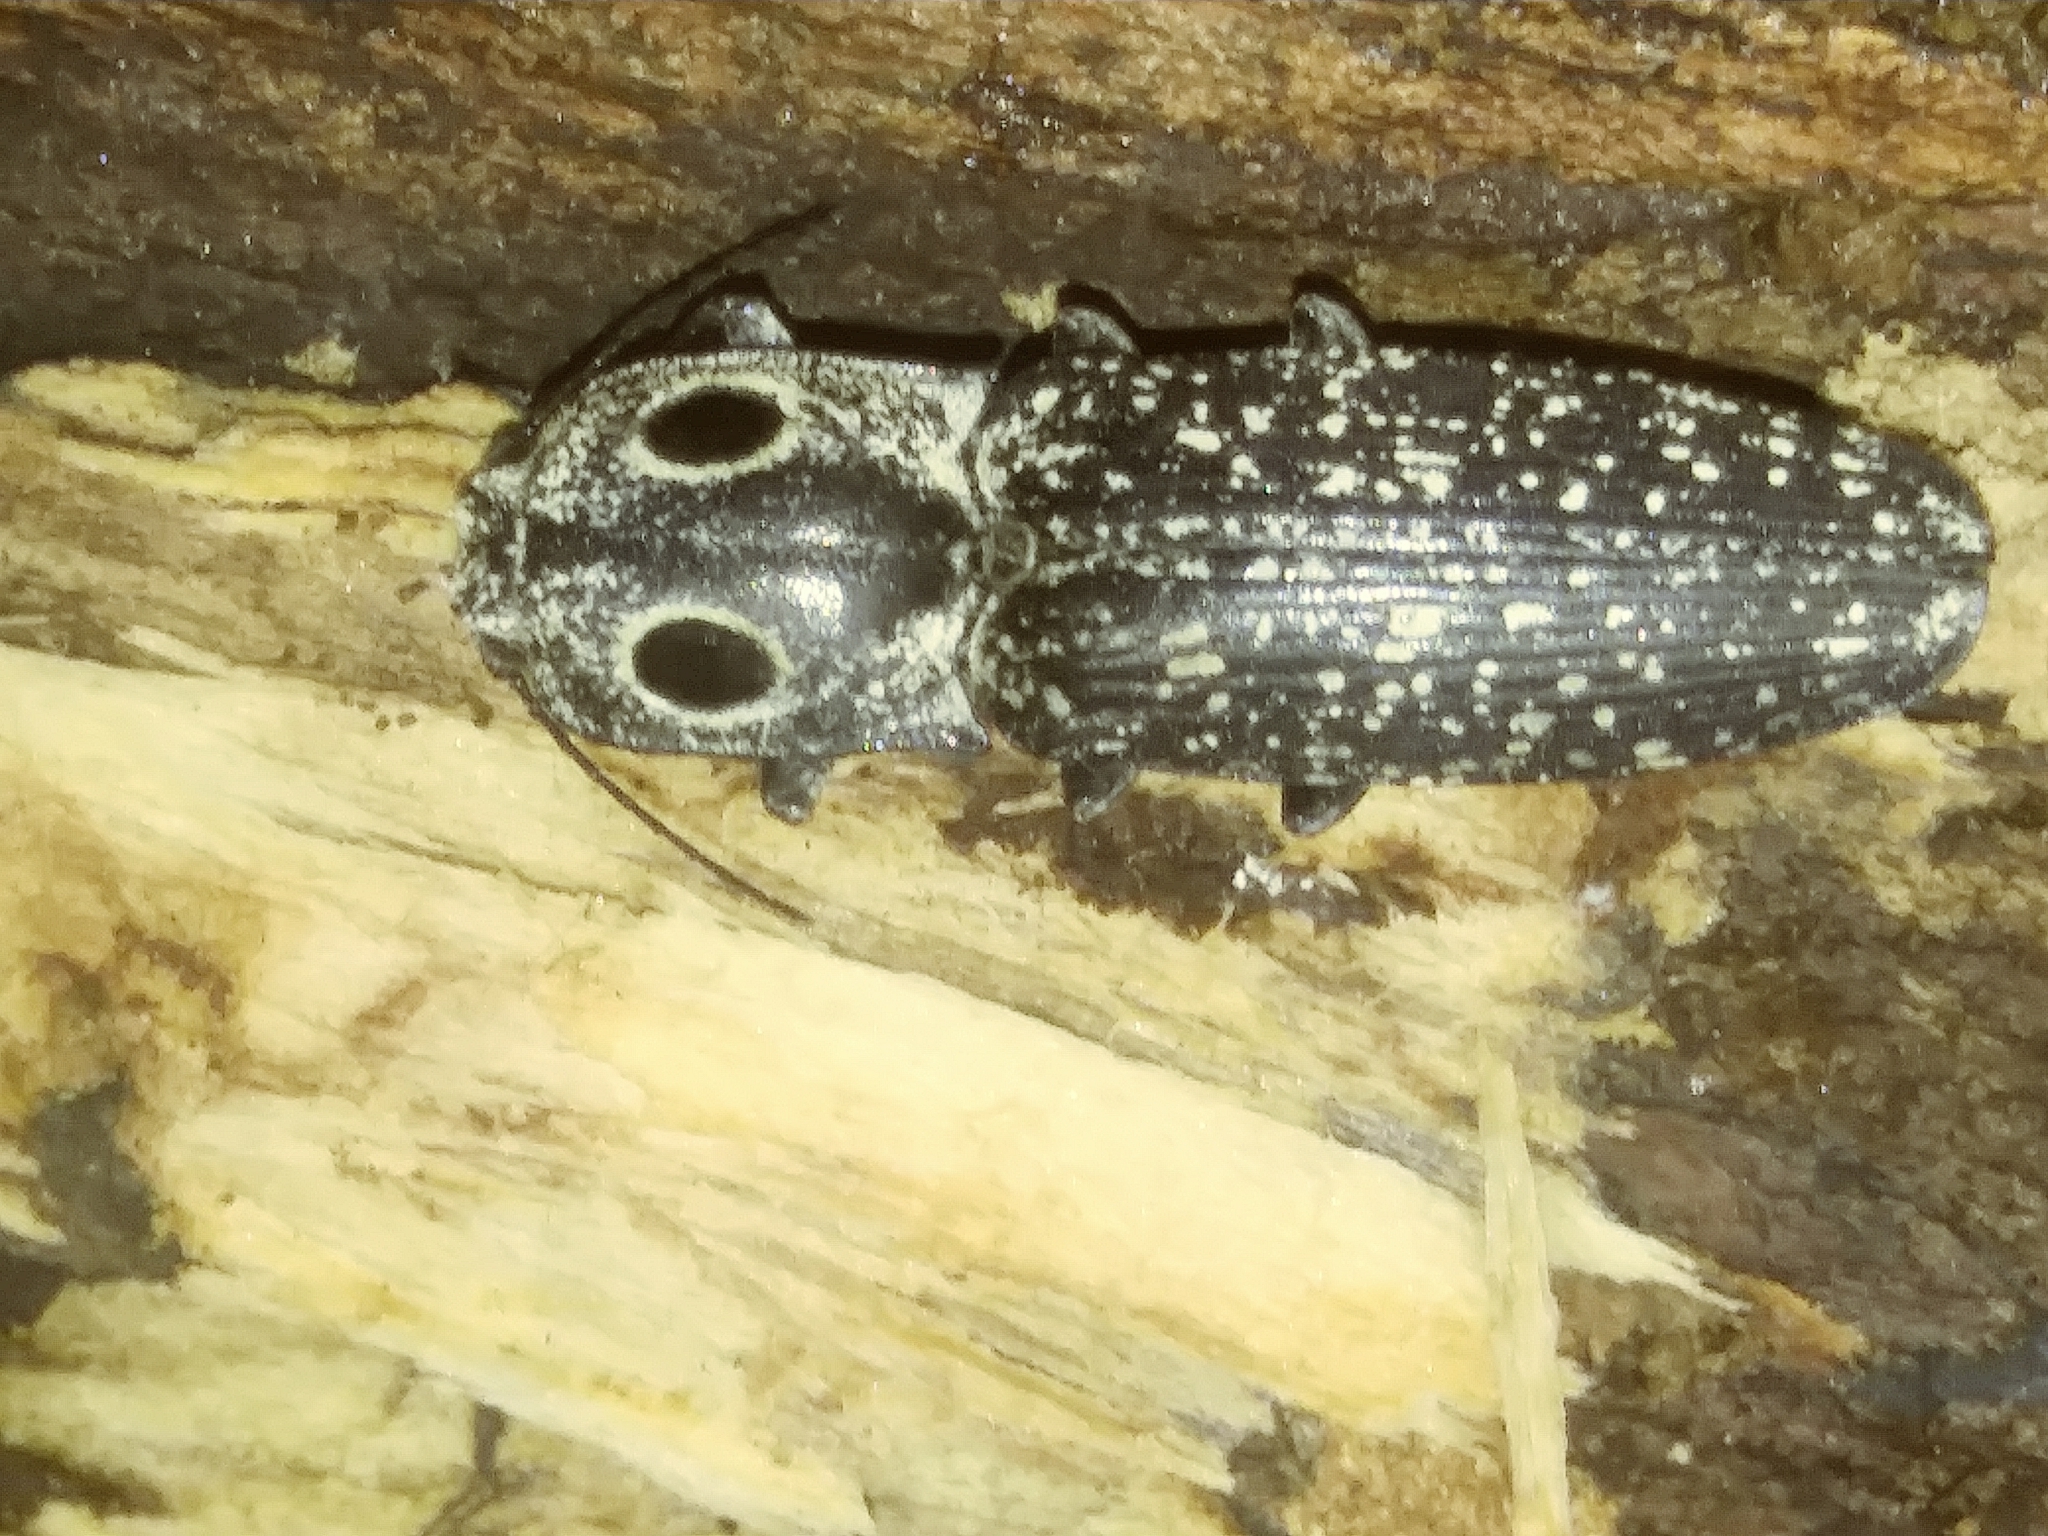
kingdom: Animalia
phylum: Arthropoda
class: Insecta
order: Coleoptera
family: Elateridae
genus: Alaus
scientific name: Alaus oculatus
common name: Eastern eyed click beetle
